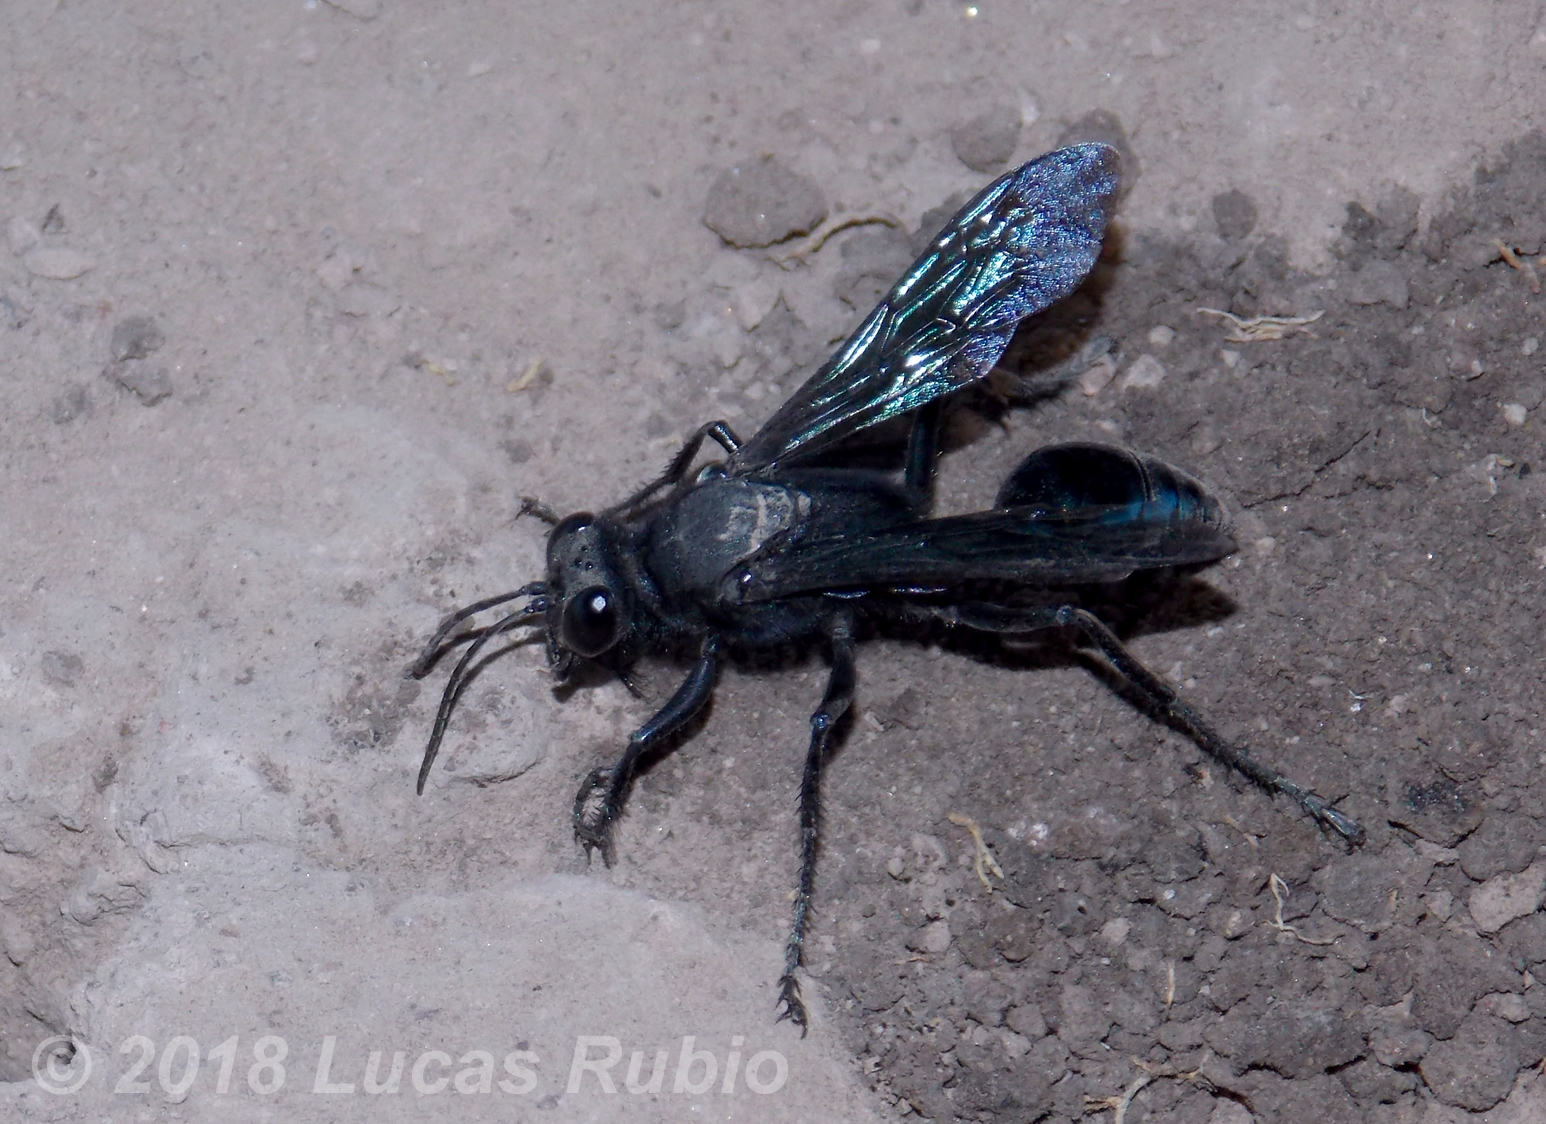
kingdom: Animalia
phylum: Arthropoda
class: Insecta
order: Hymenoptera
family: Sphecidae
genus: Stangeella
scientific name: Stangeella cyaniventris
